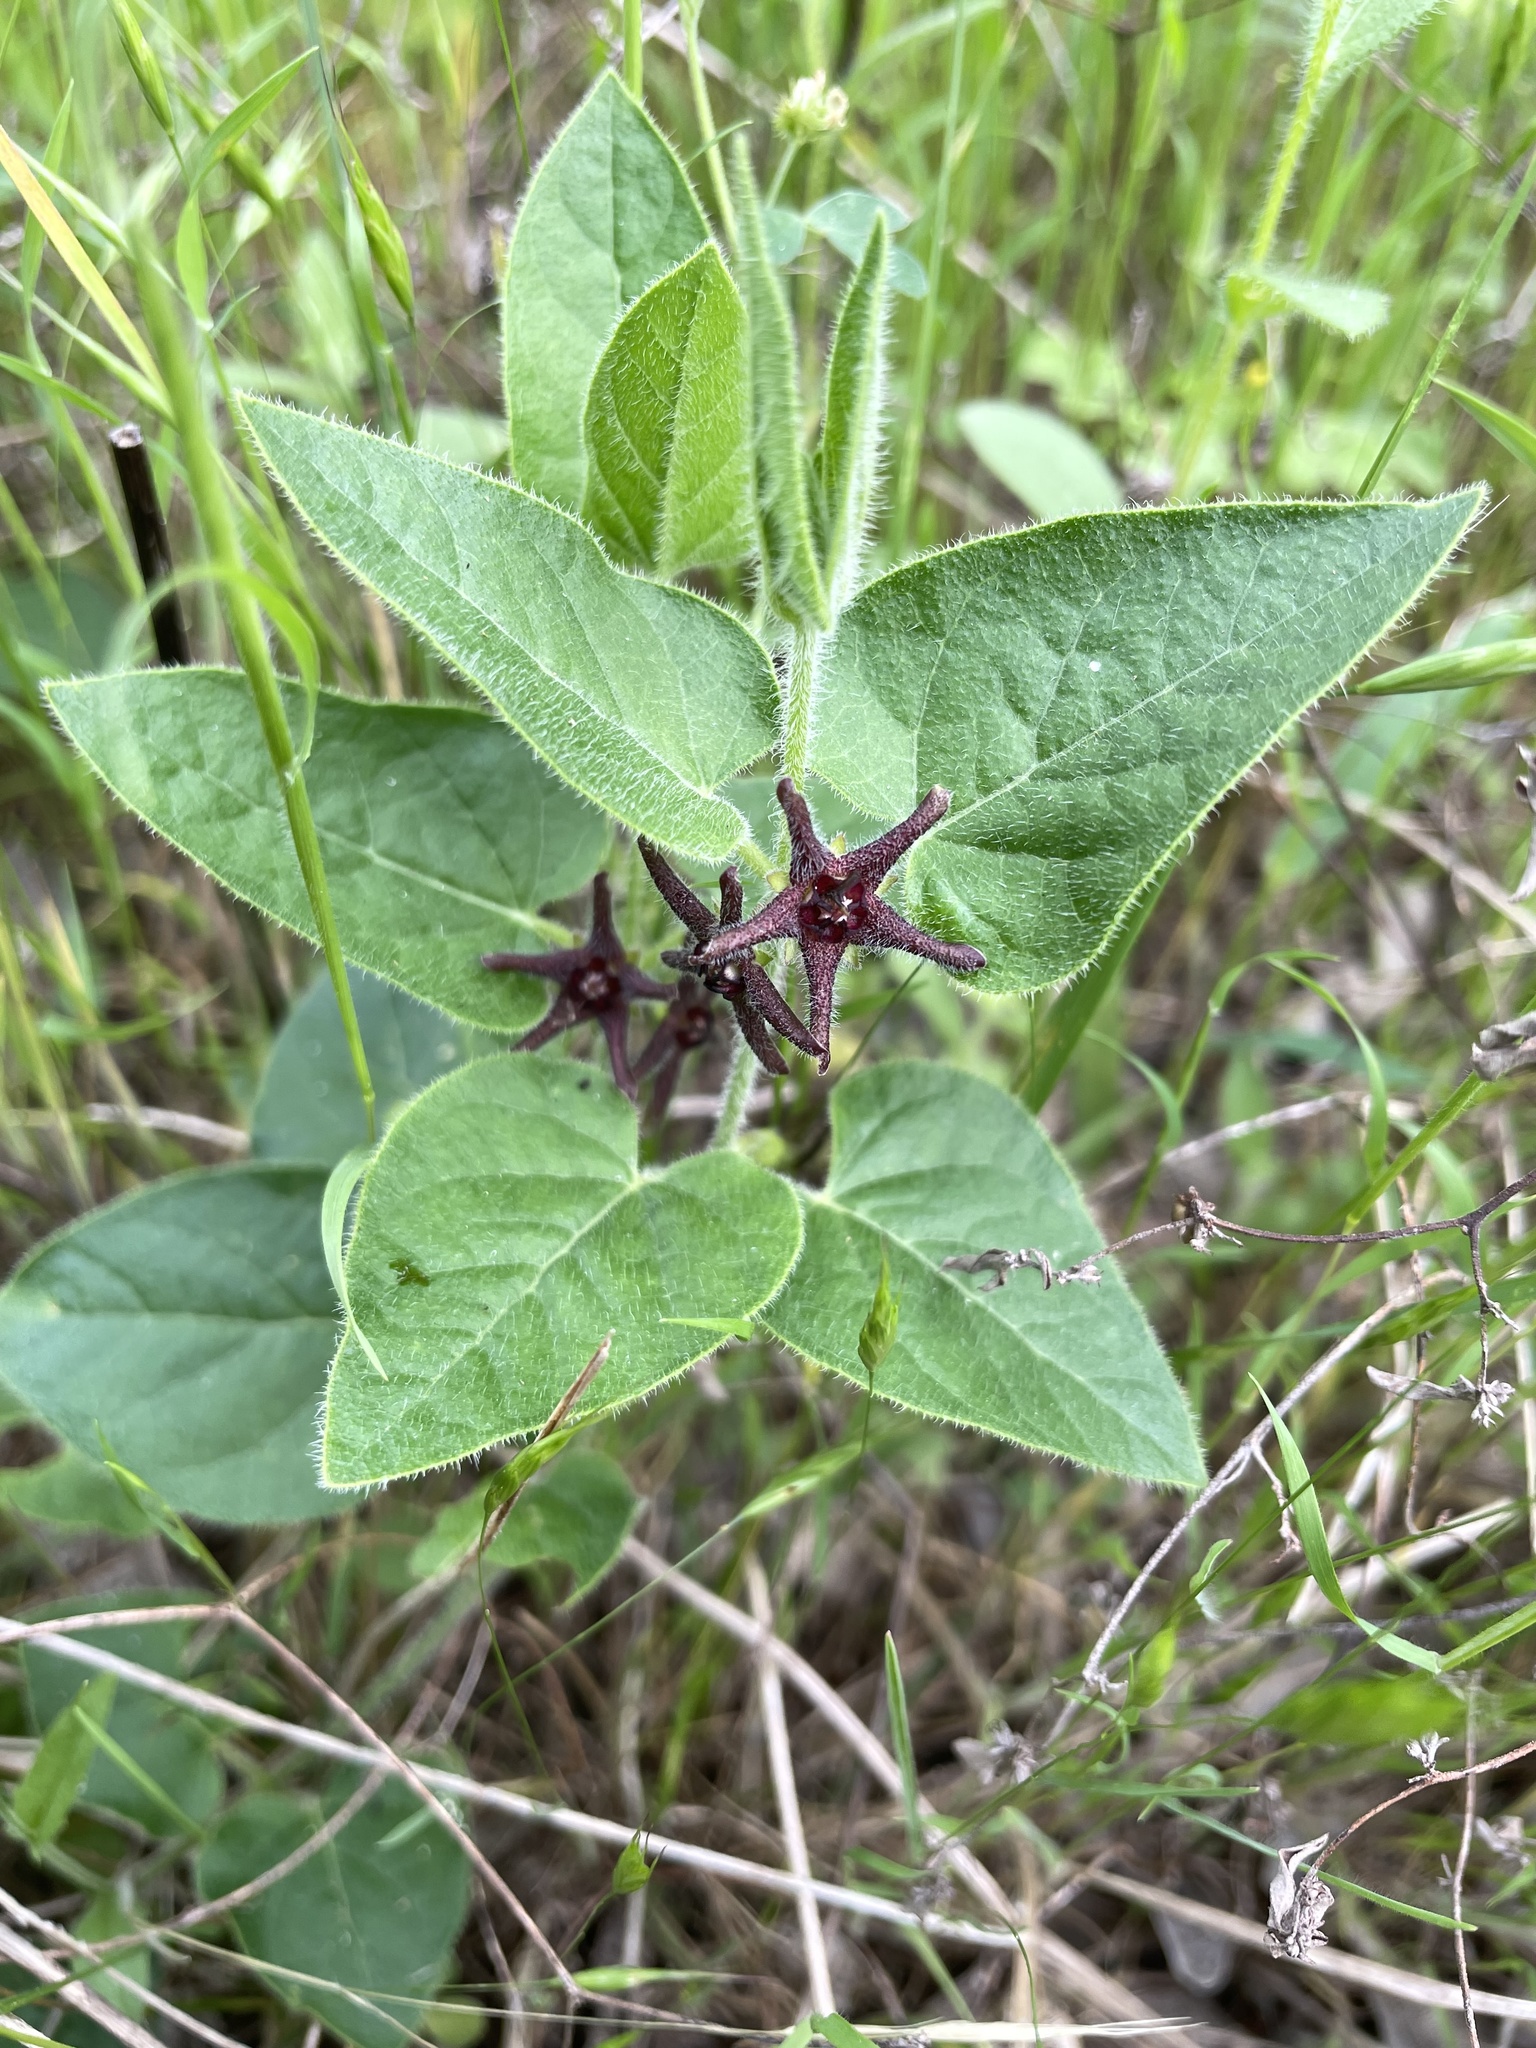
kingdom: Plantae
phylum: Tracheophyta
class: Magnoliopsida
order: Gentianales
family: Apocynaceae
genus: Chthamalia
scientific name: Chthamalia biflora
